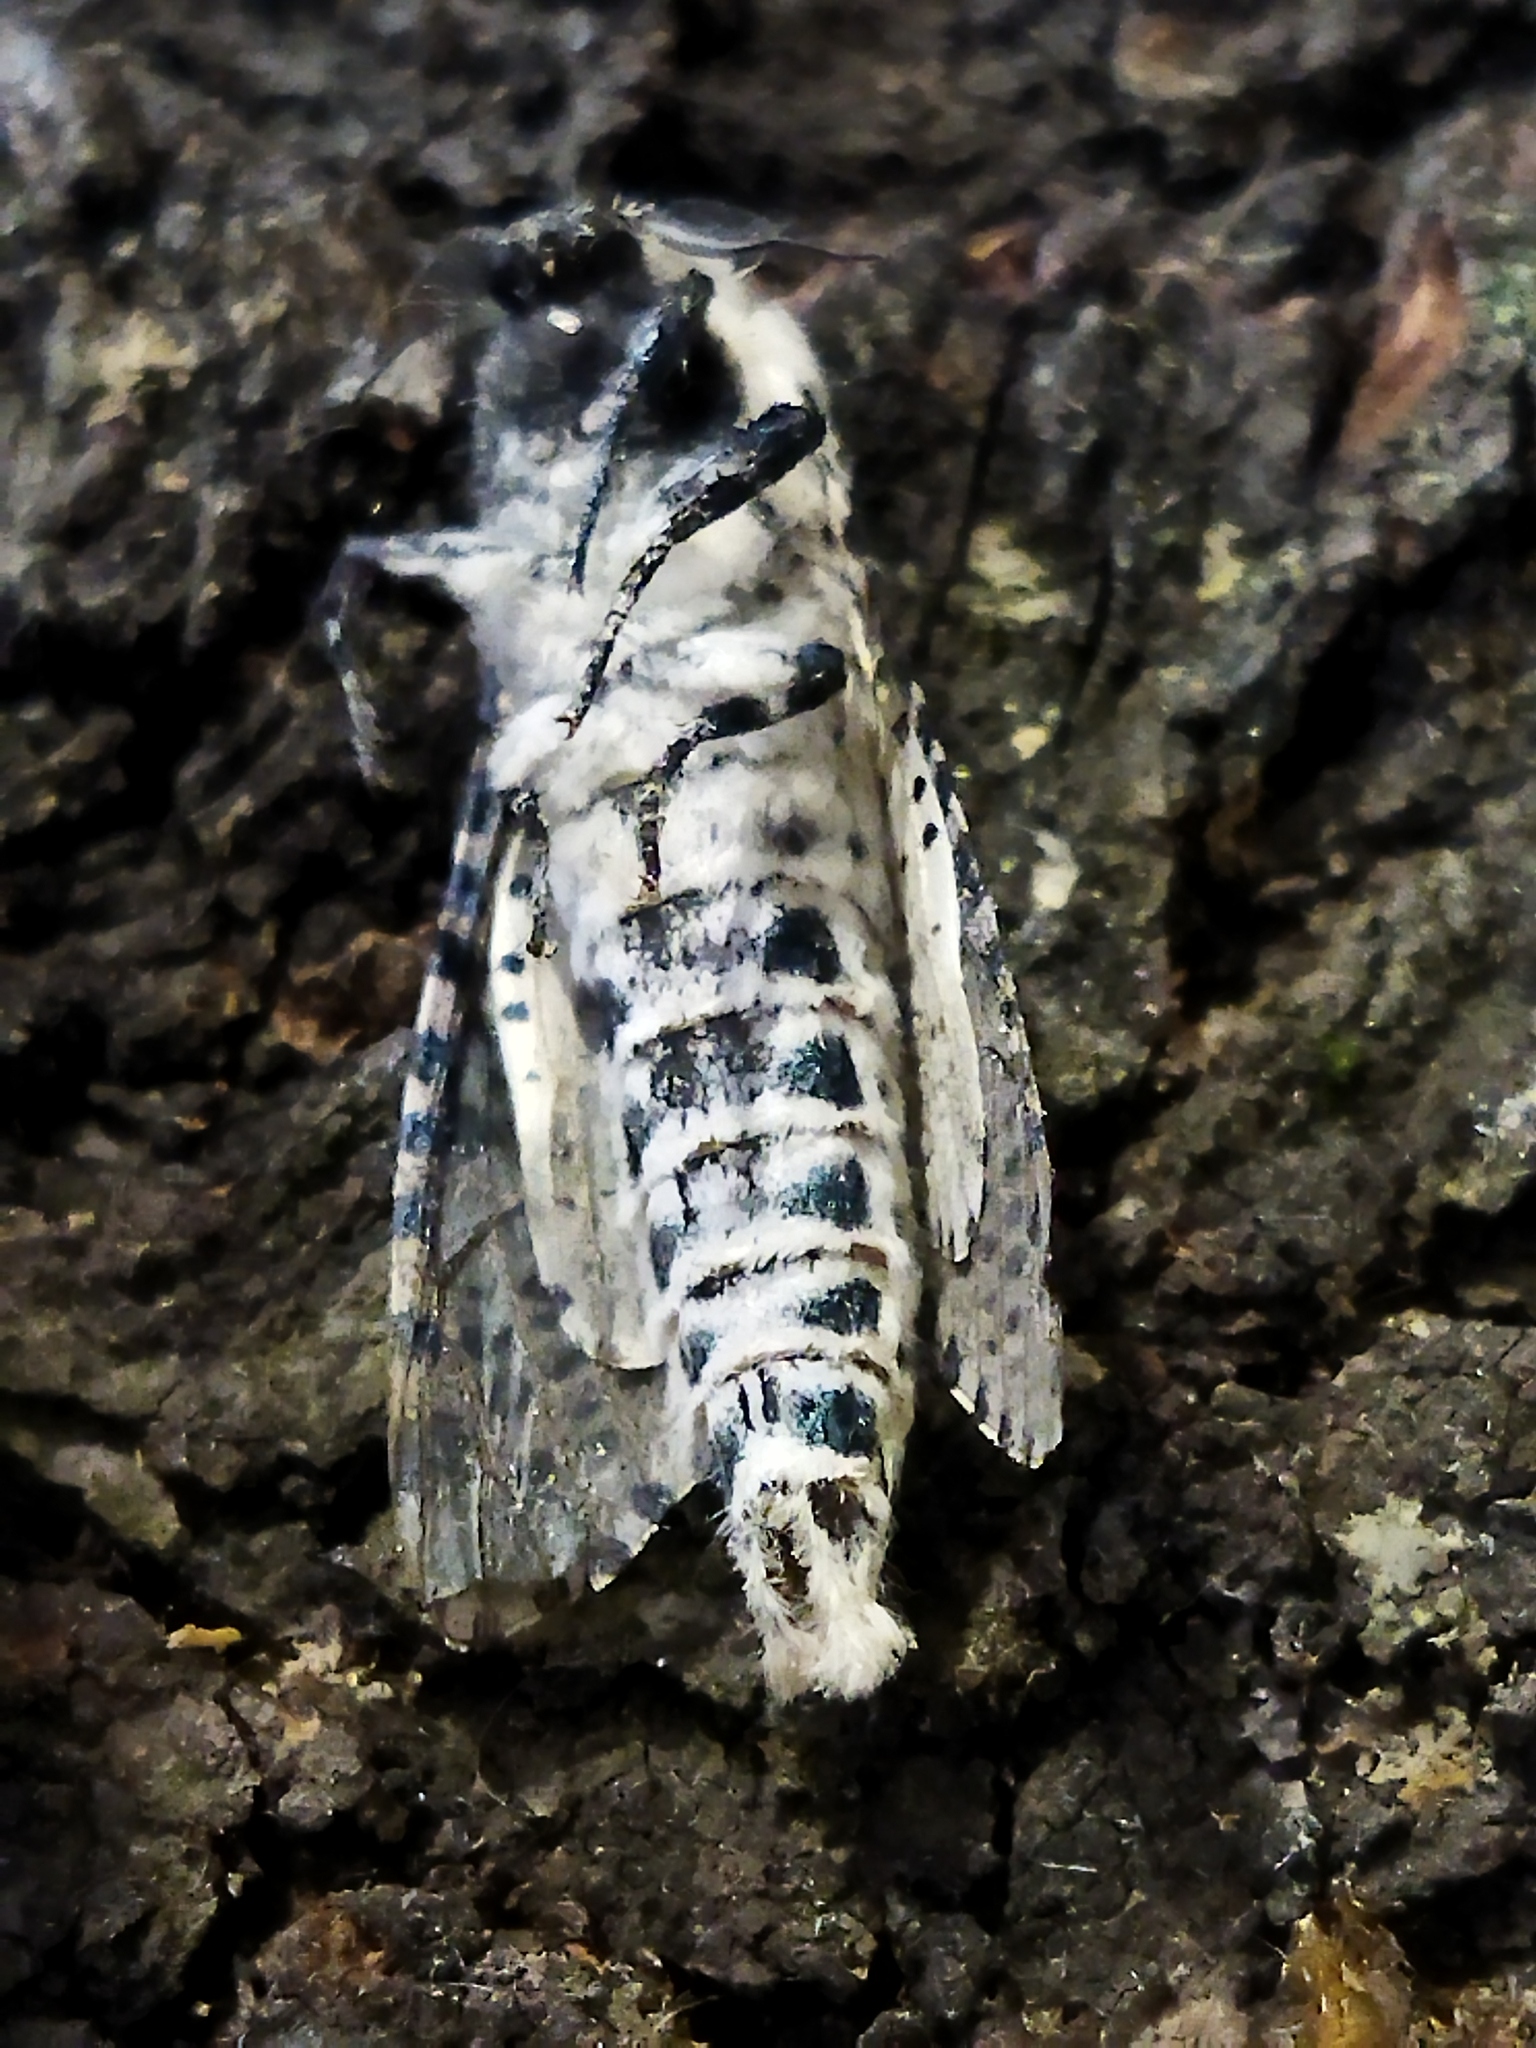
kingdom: Animalia
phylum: Arthropoda
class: Insecta
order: Lepidoptera
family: Cossidae
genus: Zeuzera
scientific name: Zeuzera pyrina
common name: Leopard moth
